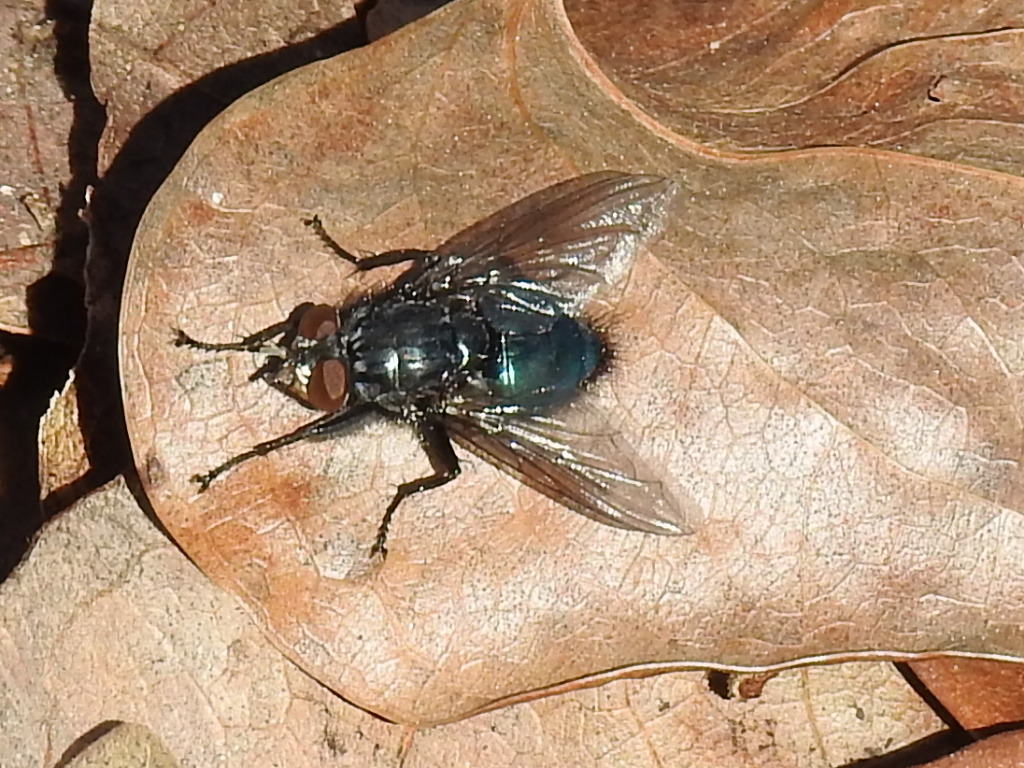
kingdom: Animalia
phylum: Arthropoda
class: Insecta
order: Diptera
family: Calliphoridae
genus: Cynomya
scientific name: Cynomya cadaverina
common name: Shiny blue bottle fly
